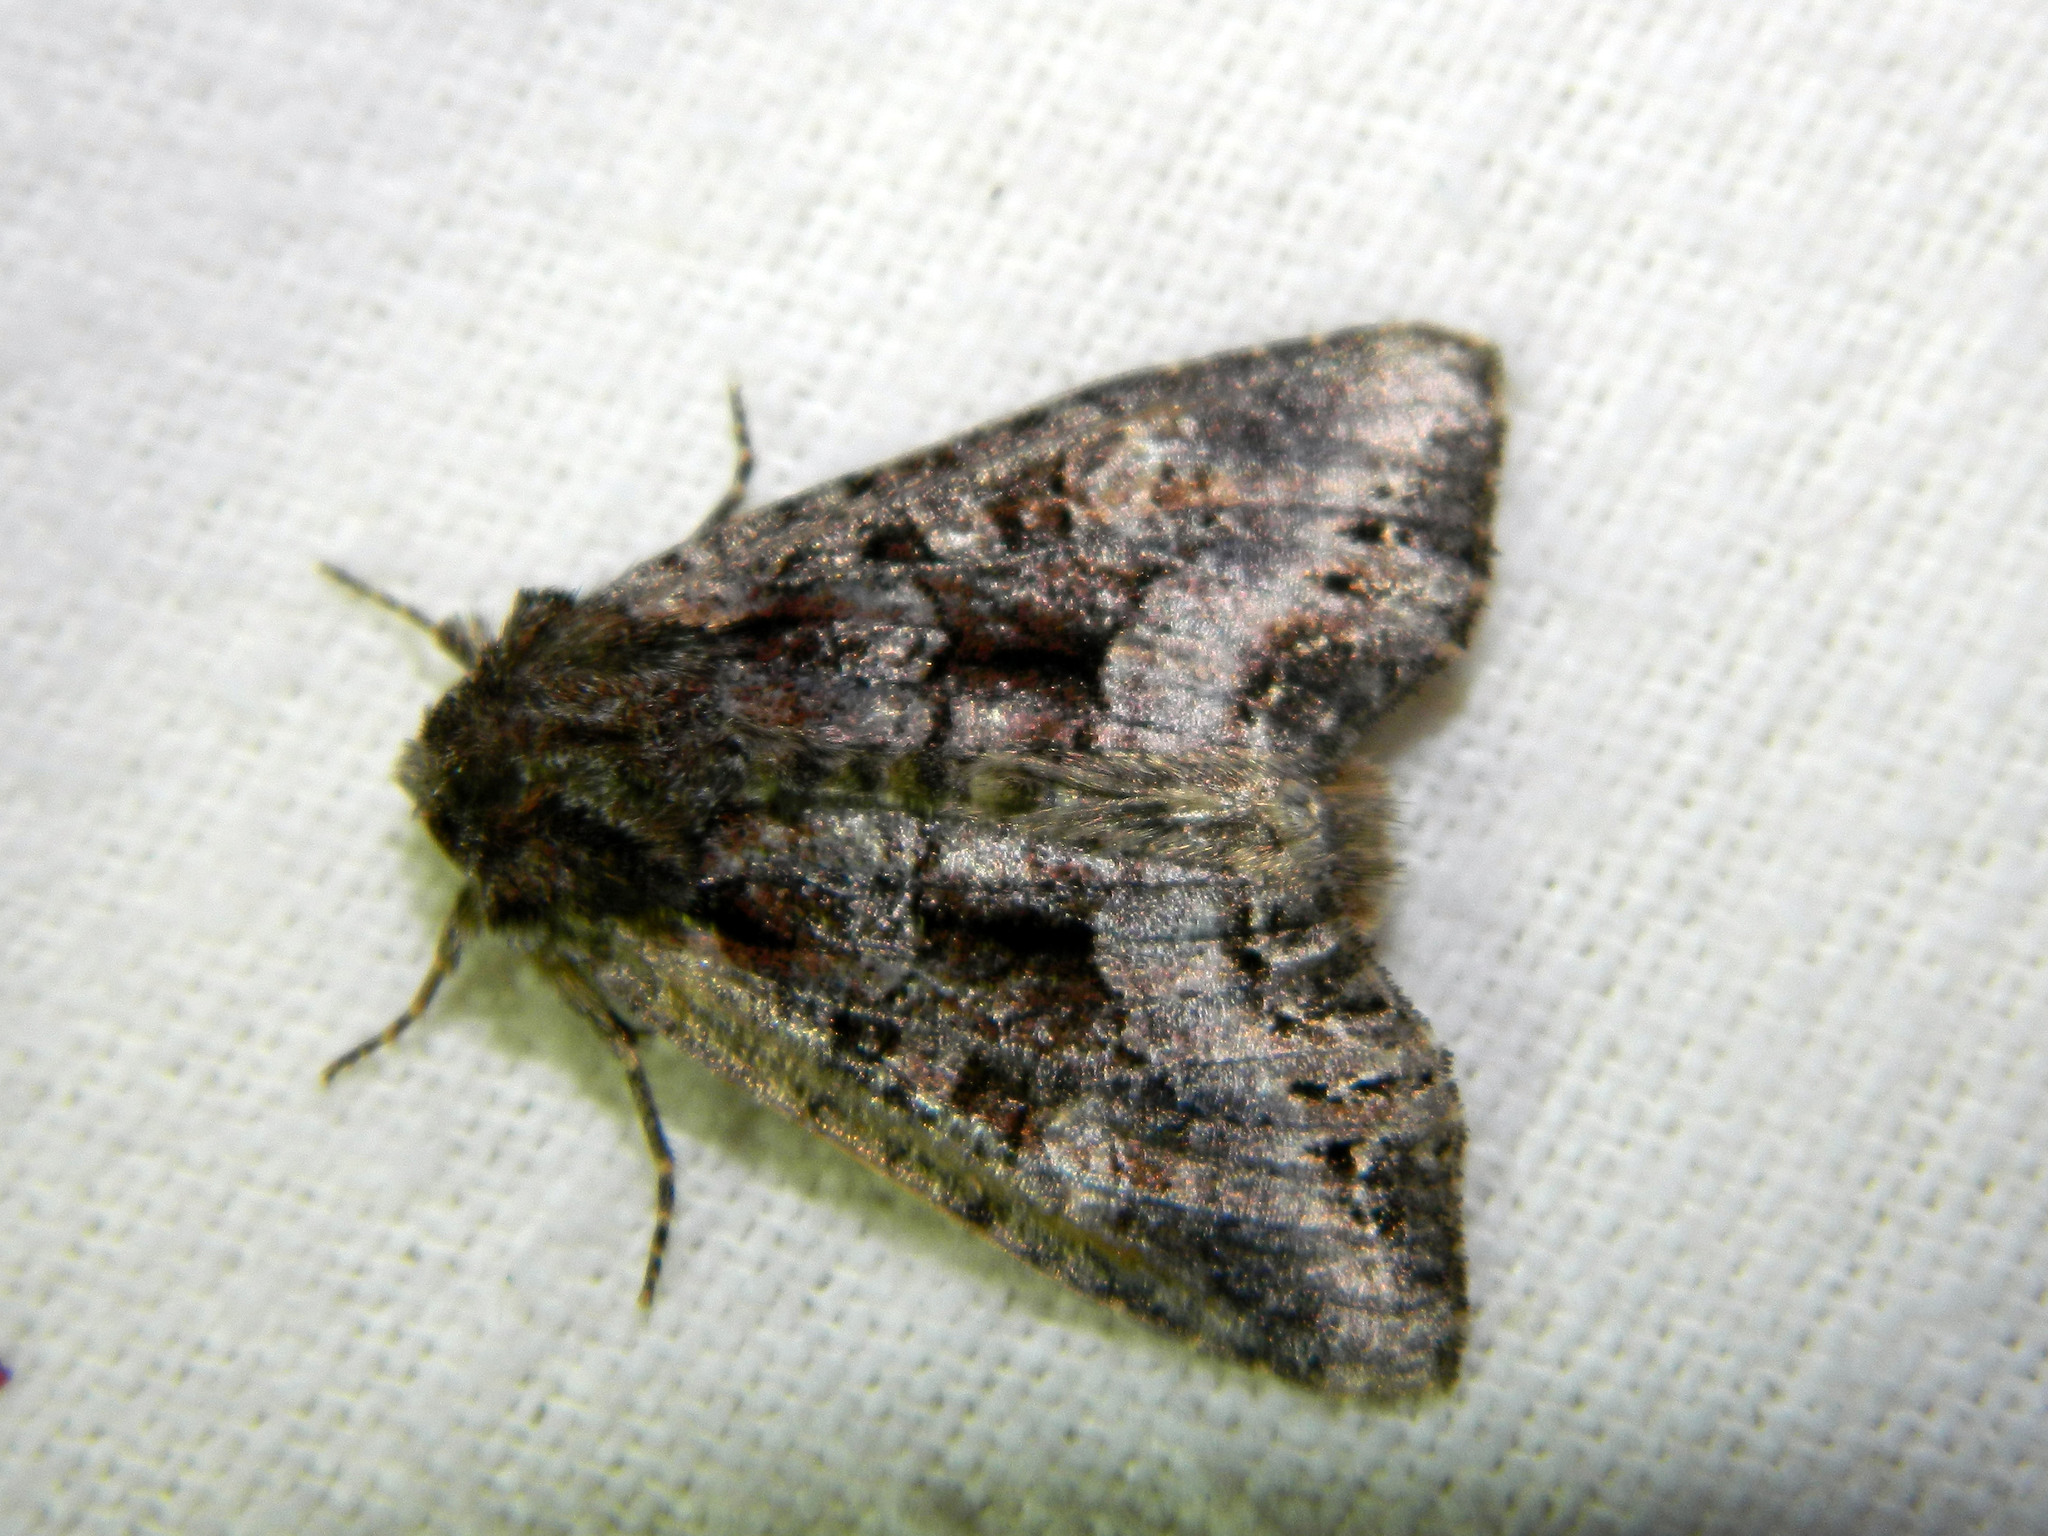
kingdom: Animalia
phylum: Arthropoda
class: Insecta
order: Lepidoptera
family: Noctuidae
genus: Lacanobia
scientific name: Lacanobia grandis
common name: Grand arches moth
